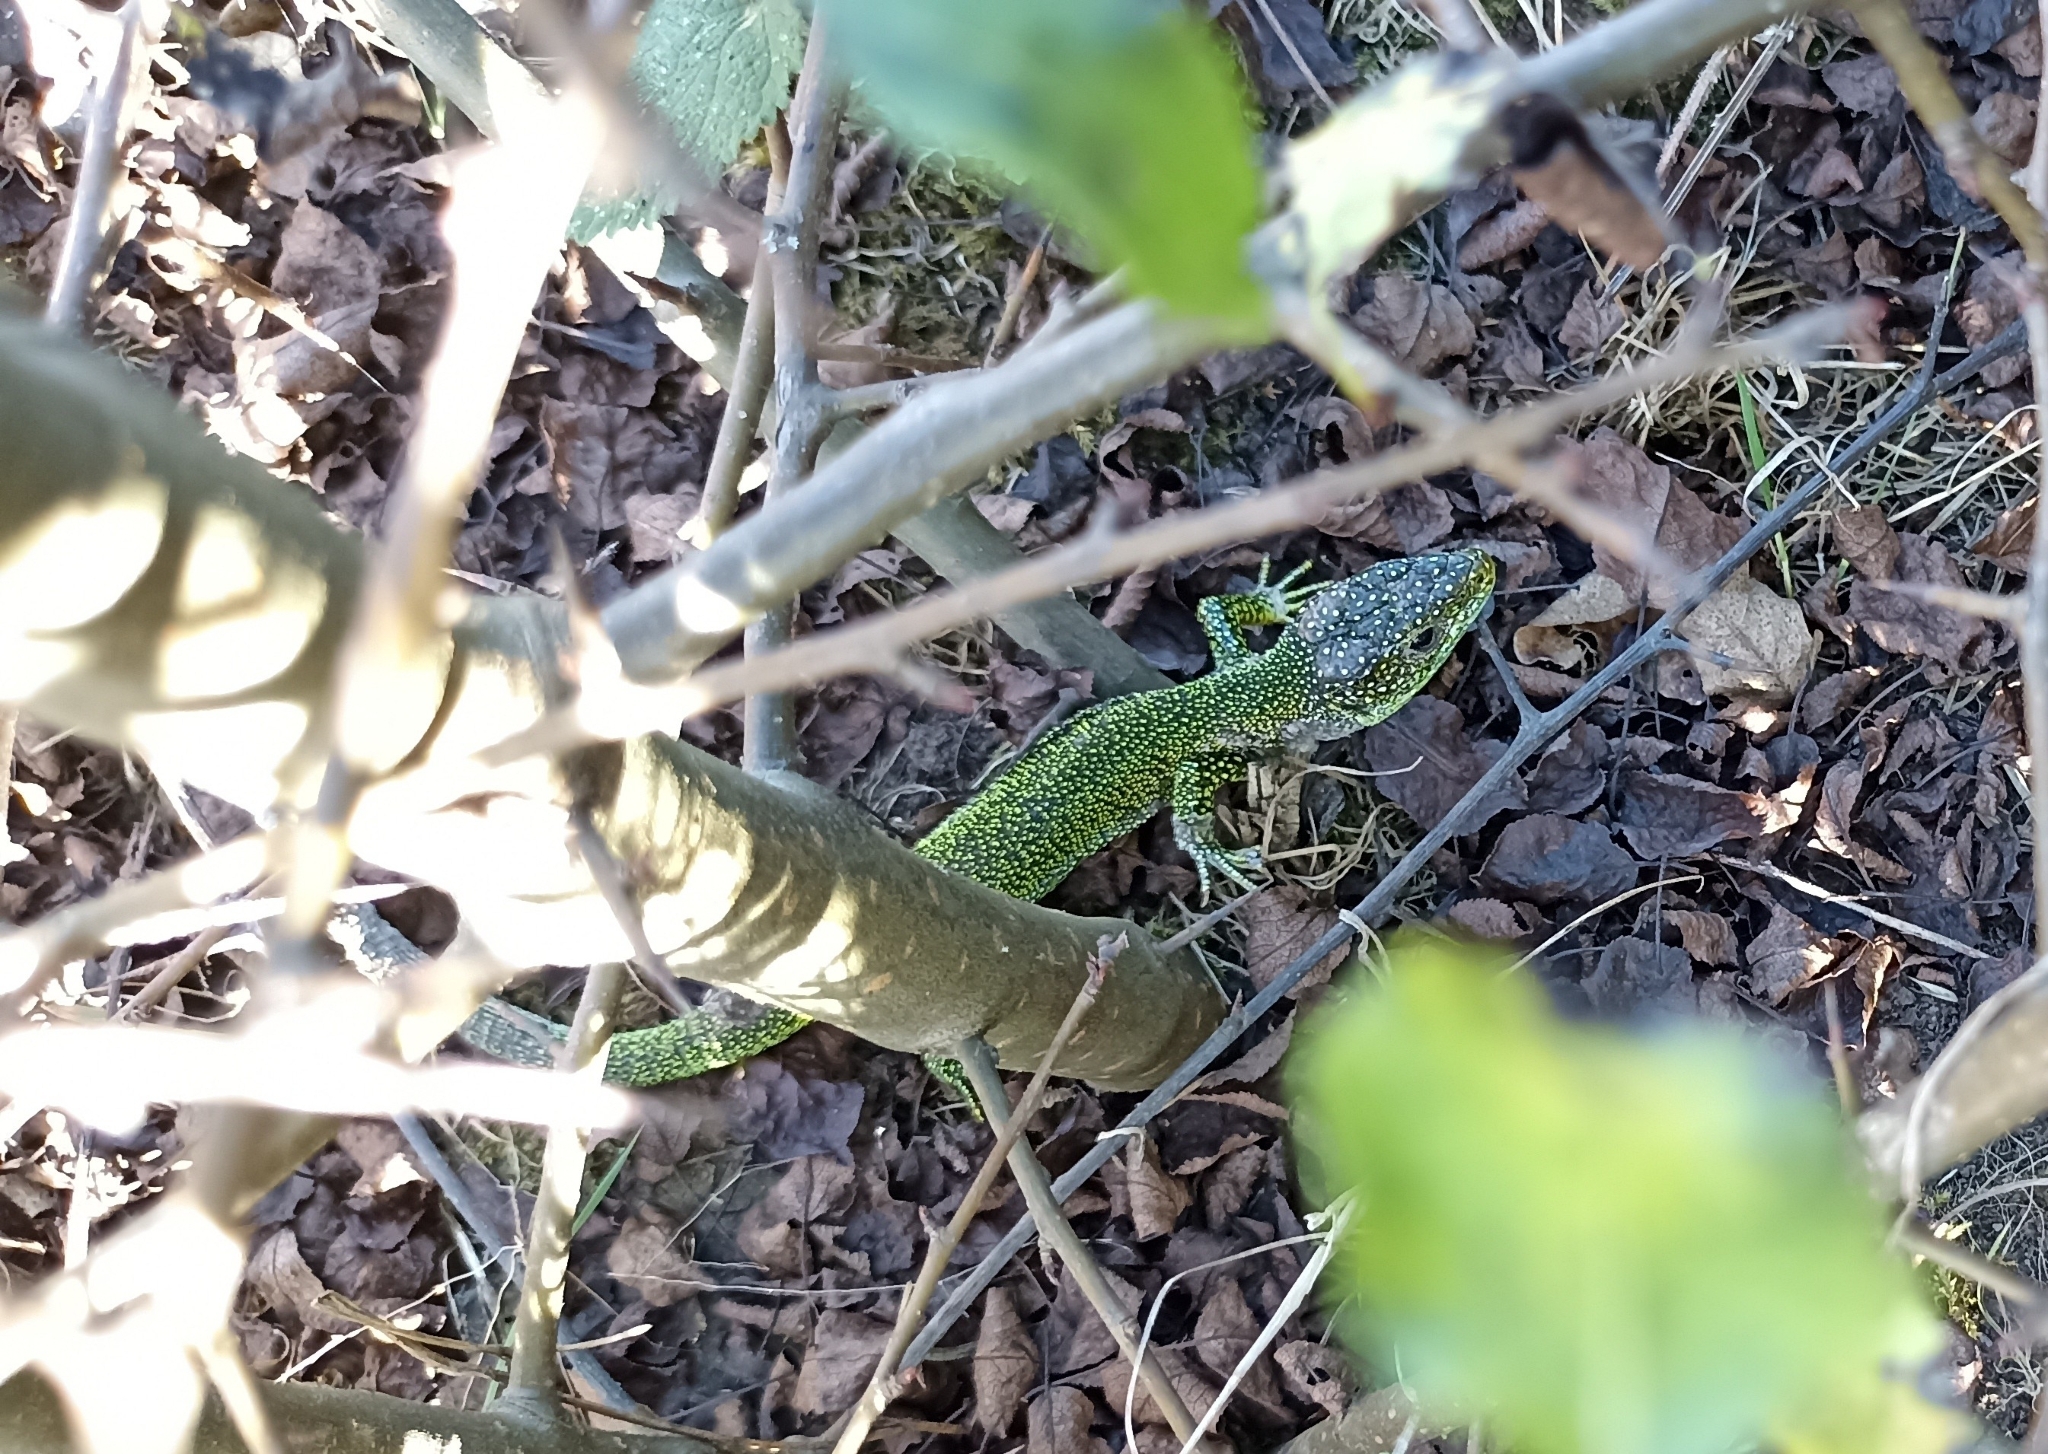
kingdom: Animalia
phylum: Chordata
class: Squamata
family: Lacertidae
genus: Lacerta
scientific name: Lacerta bilineata
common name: Western green lizard
